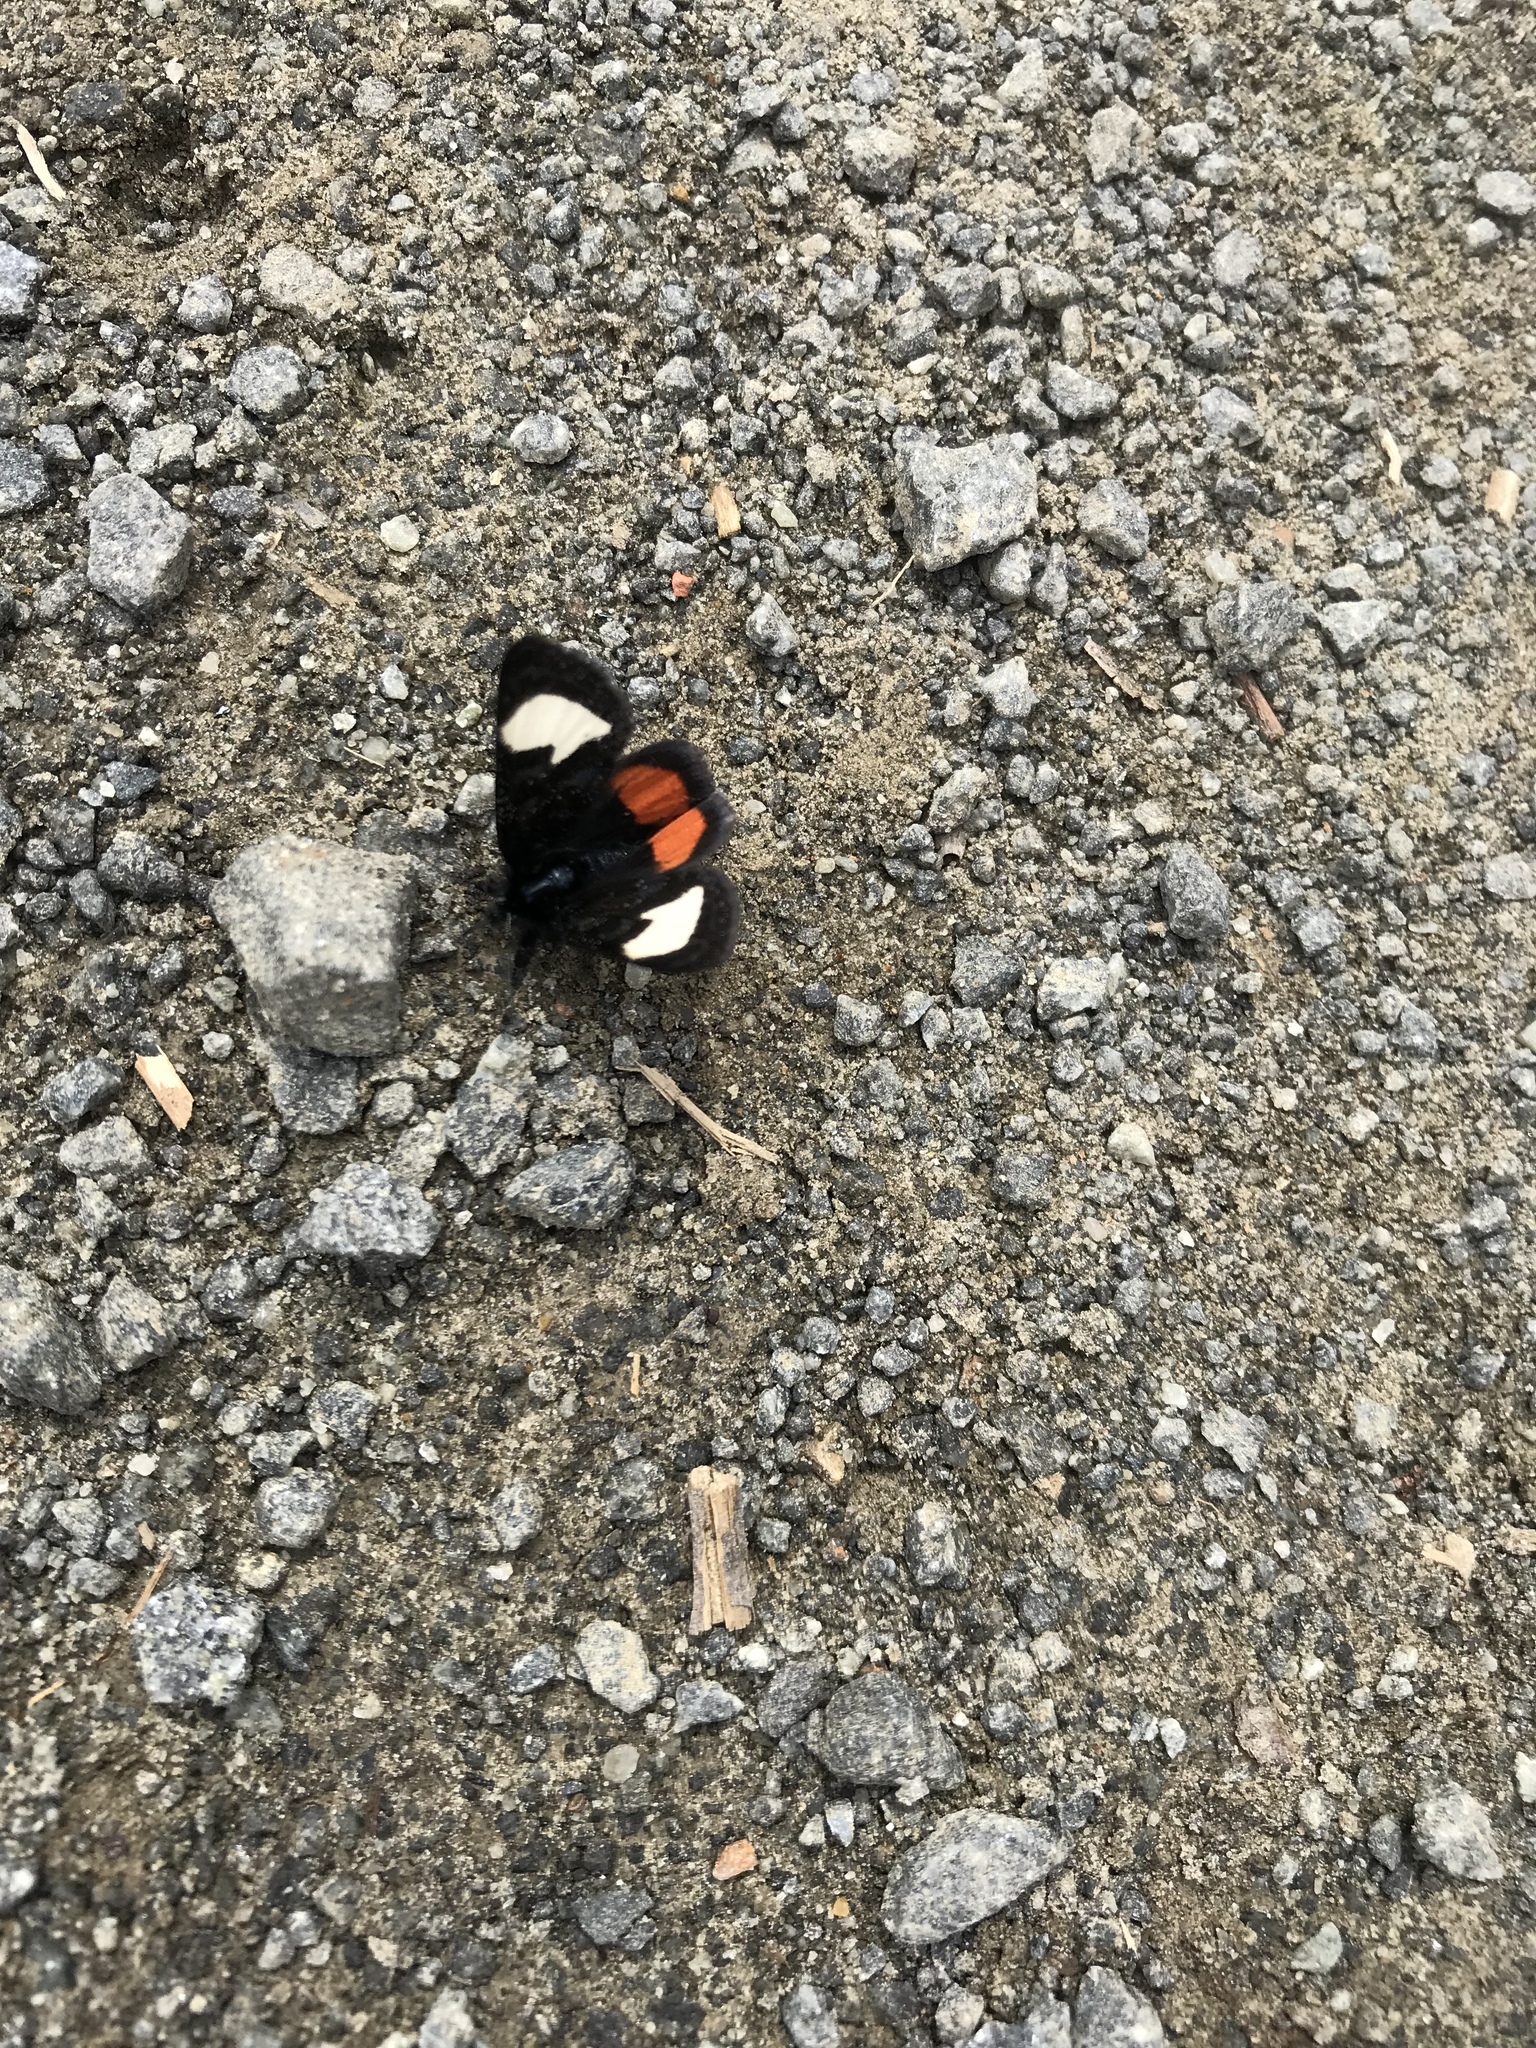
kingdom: Animalia
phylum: Arthropoda
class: Insecta
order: Lepidoptera
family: Noctuidae
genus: Psychomorpha
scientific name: Psychomorpha epimenis
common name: Grapevine epimenis moth
